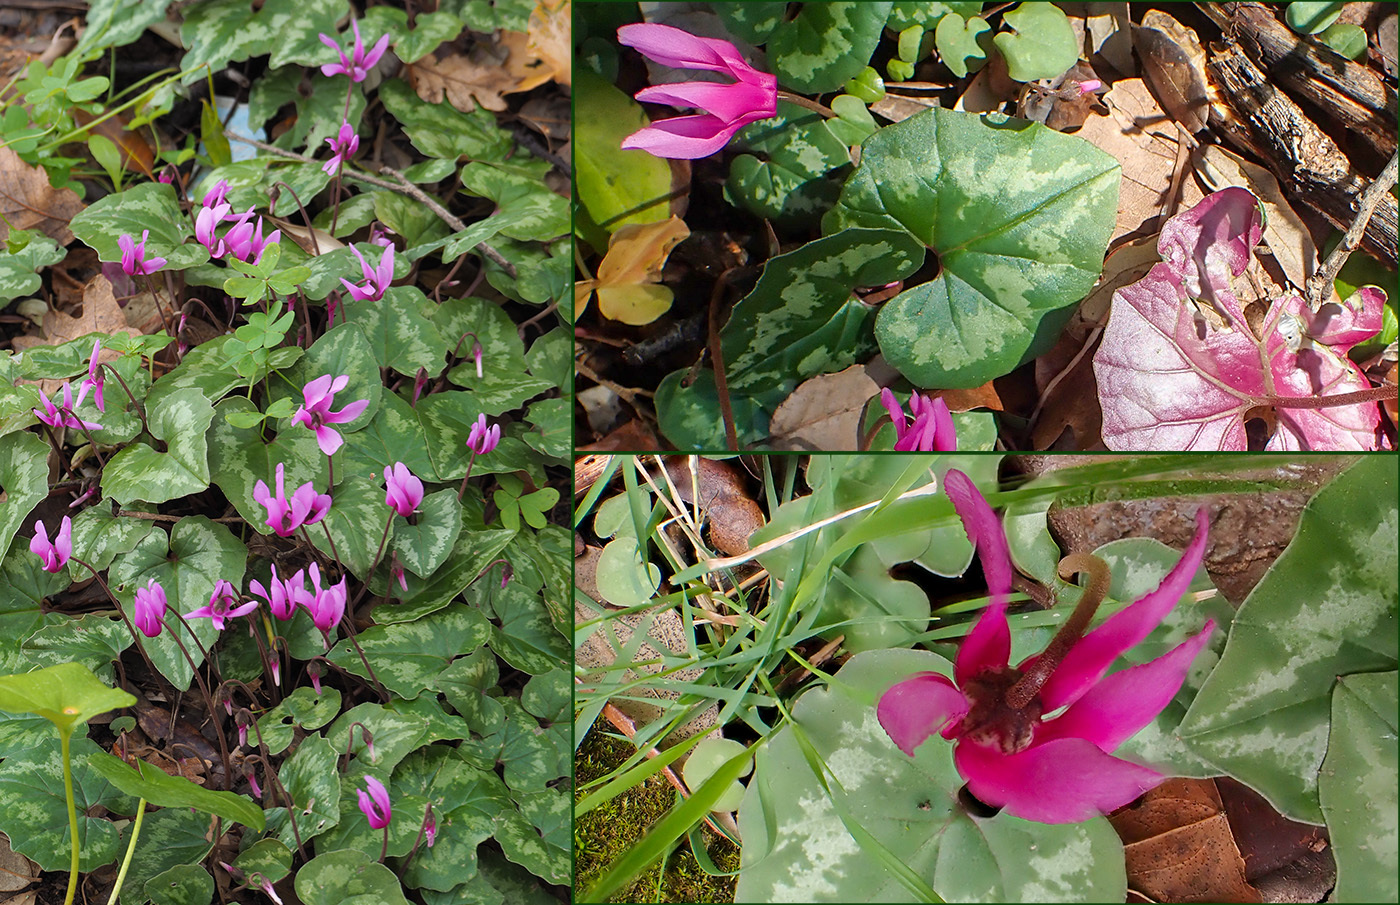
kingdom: Plantae
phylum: Tracheophyta
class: Magnoliopsida
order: Ericales
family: Primulaceae
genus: Cyclamen
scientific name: Cyclamen repandum
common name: Spring sowbread
